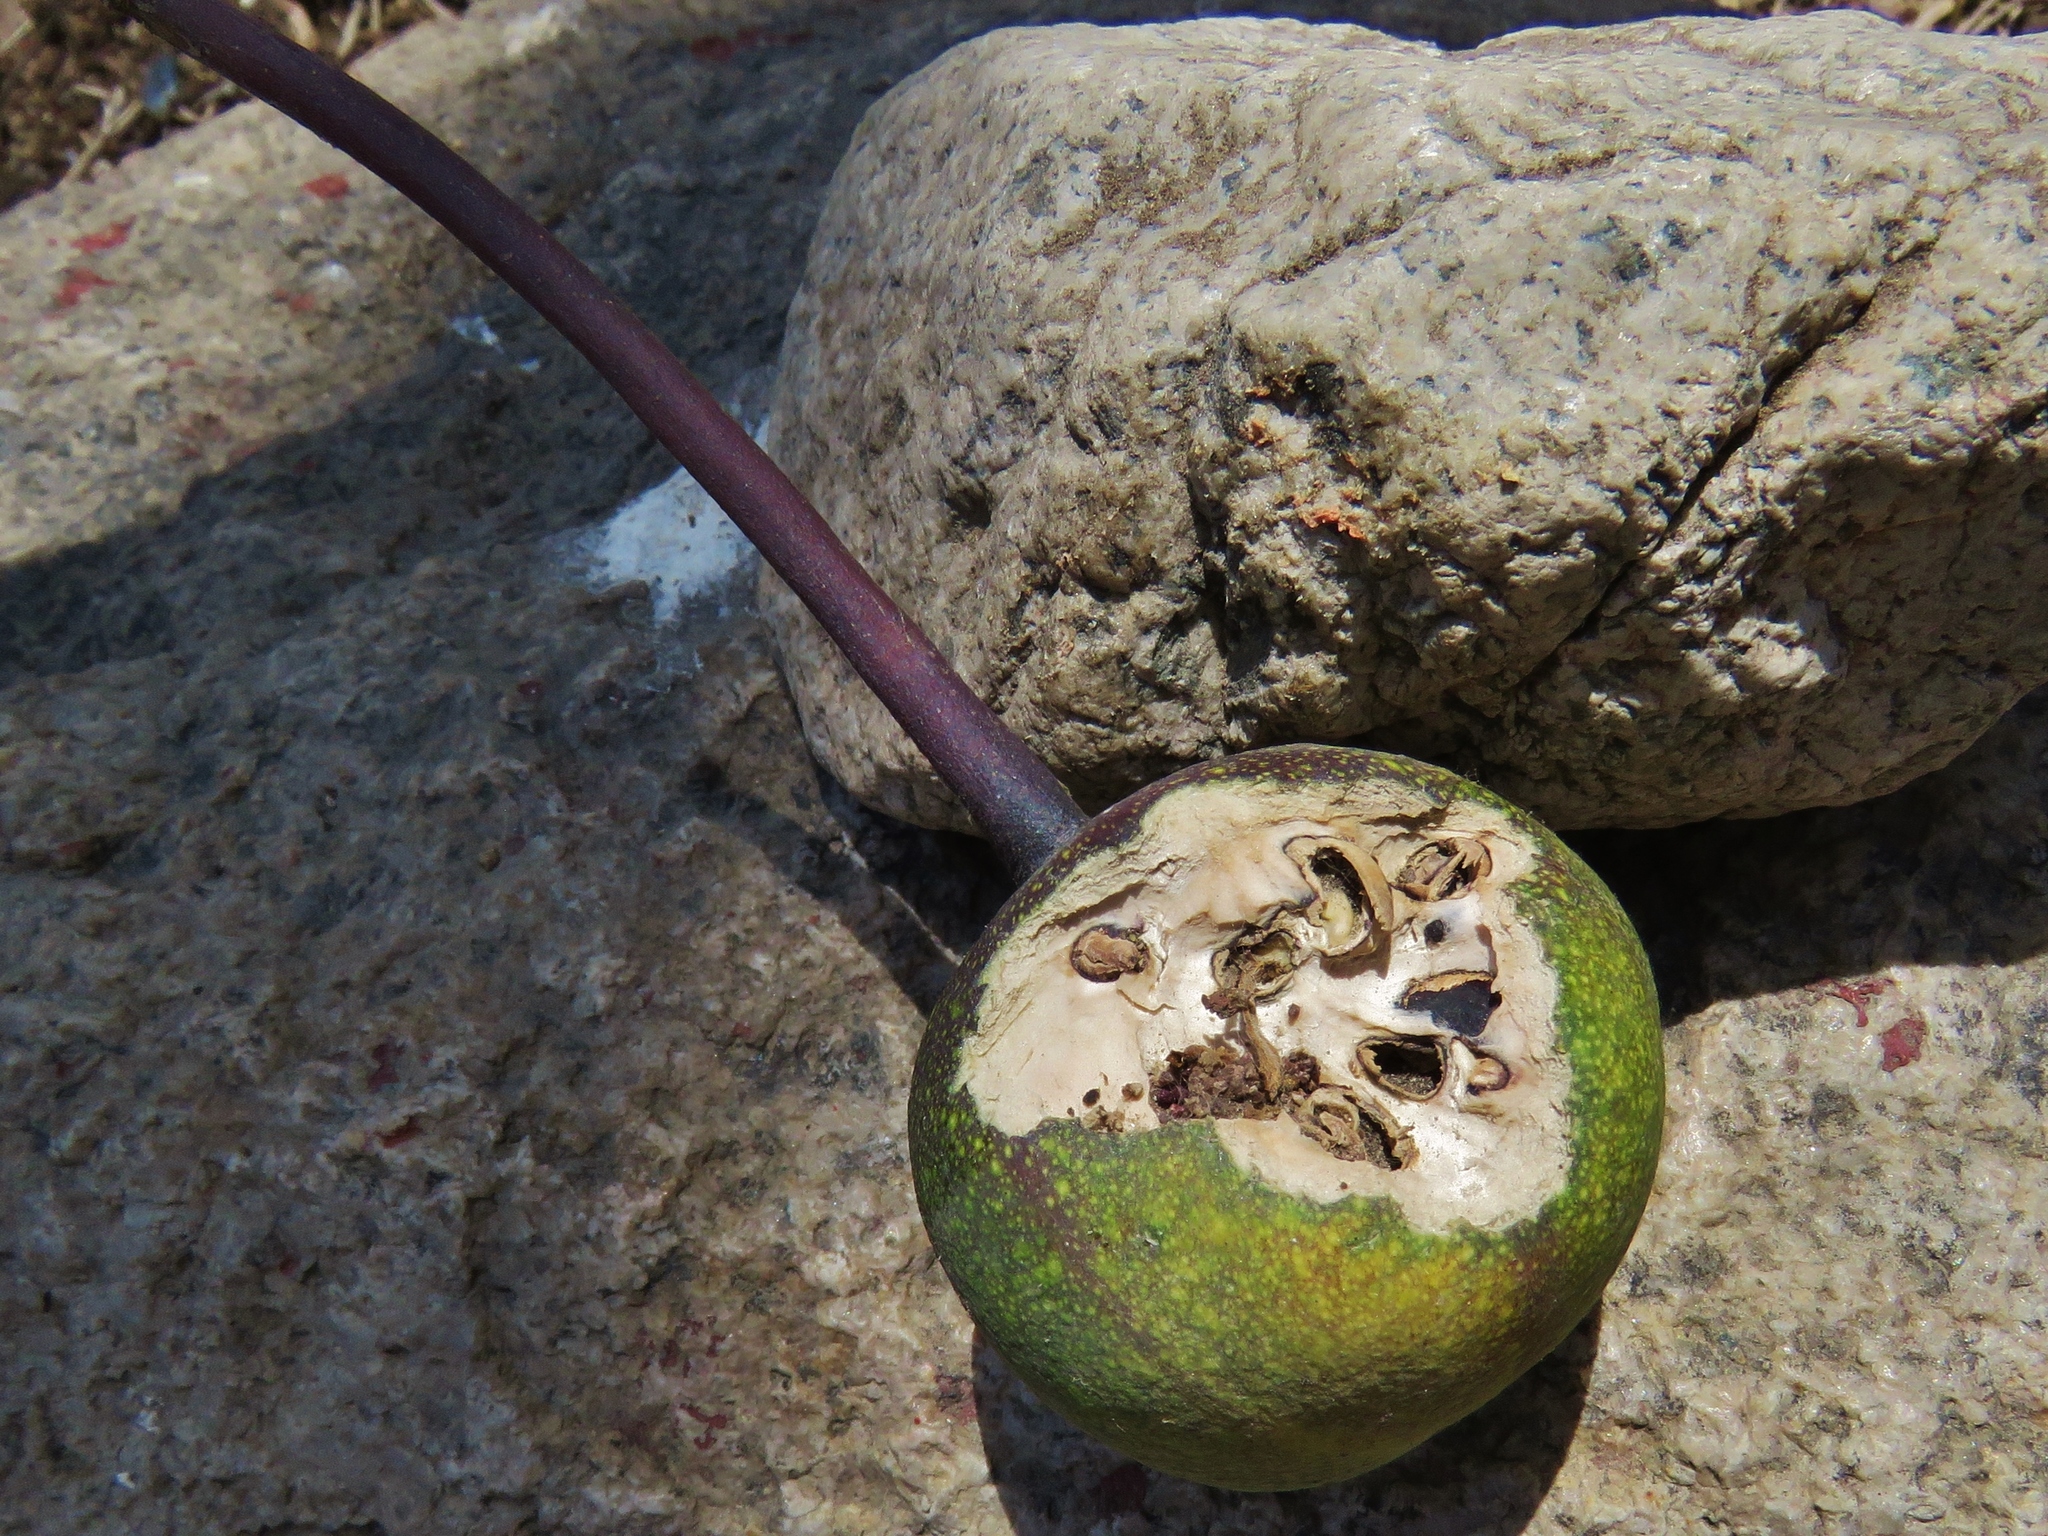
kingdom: Plantae
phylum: Tracheophyta
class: Magnoliopsida
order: Brassicales
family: Capparaceae
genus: Capparidastrum
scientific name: Capparidastrum petiolare
